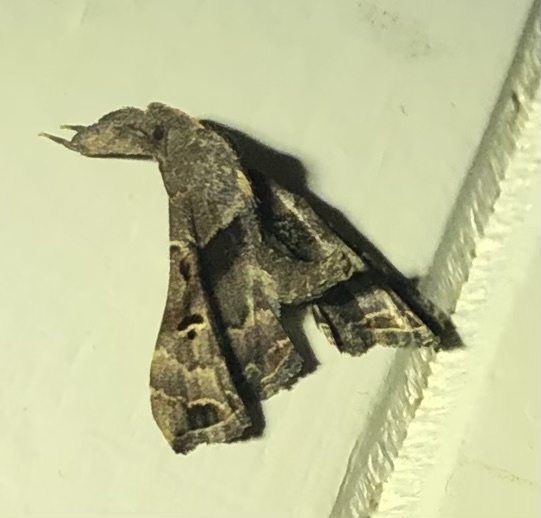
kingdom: Animalia
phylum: Arthropoda
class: Insecta
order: Lepidoptera
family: Erebidae
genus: Palthis
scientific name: Palthis asopialis
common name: Faint-spotted palthis moth
